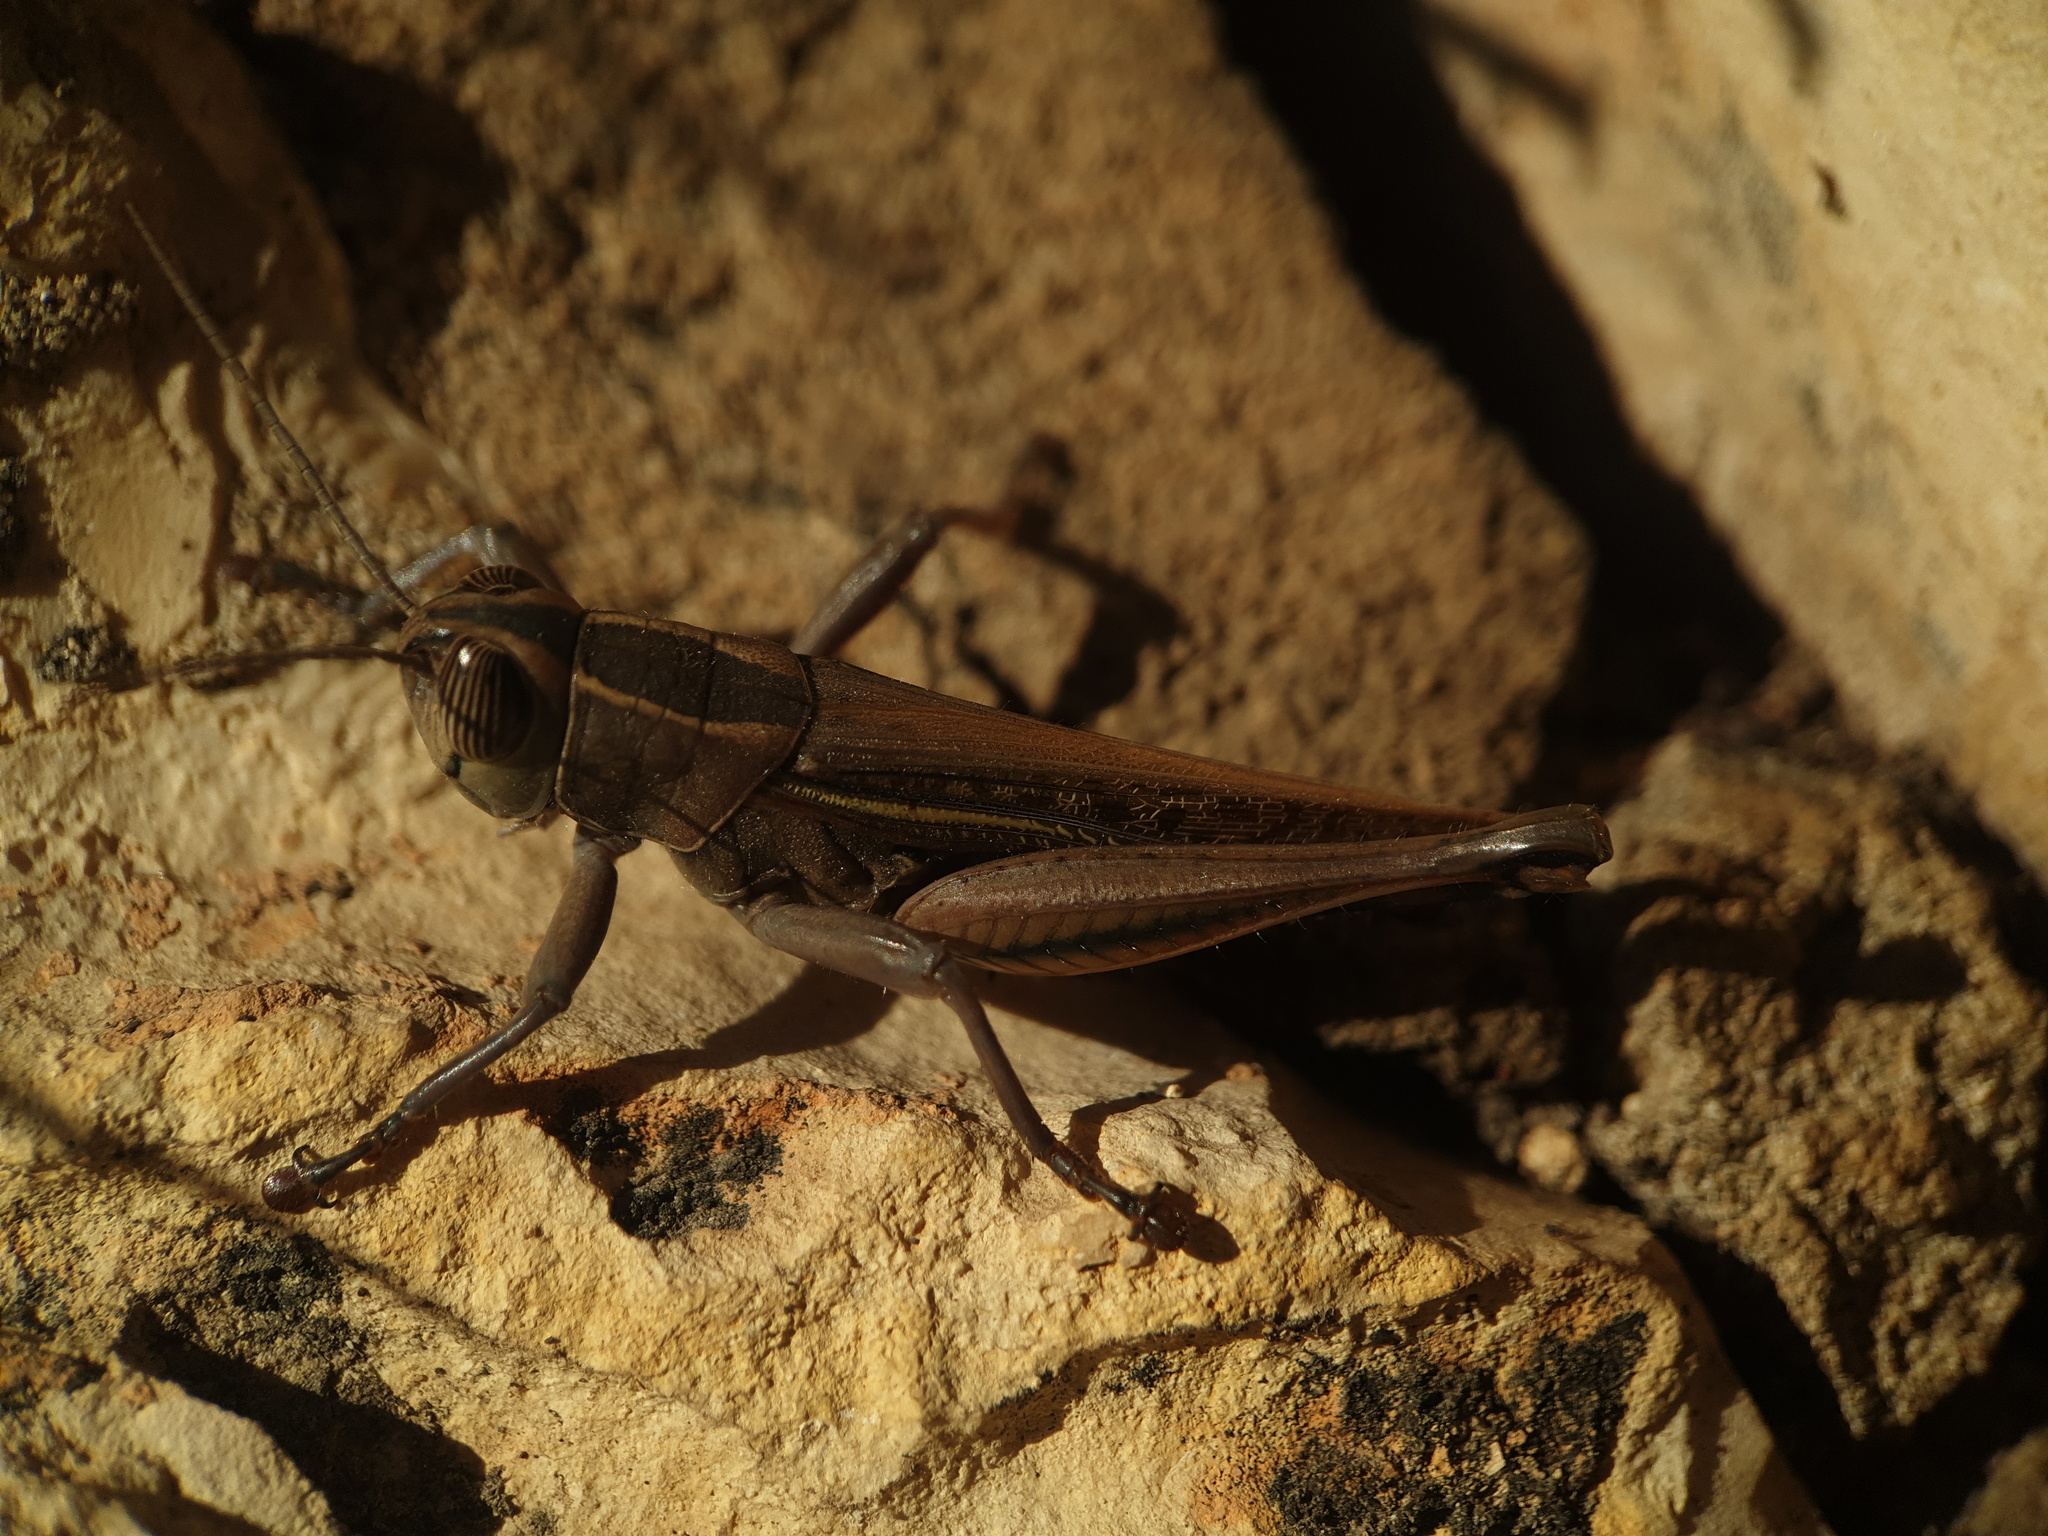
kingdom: Animalia
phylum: Arthropoda
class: Insecta
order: Orthoptera
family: Acrididae
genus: Eyprepocnemis
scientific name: Eyprepocnemis plorans
